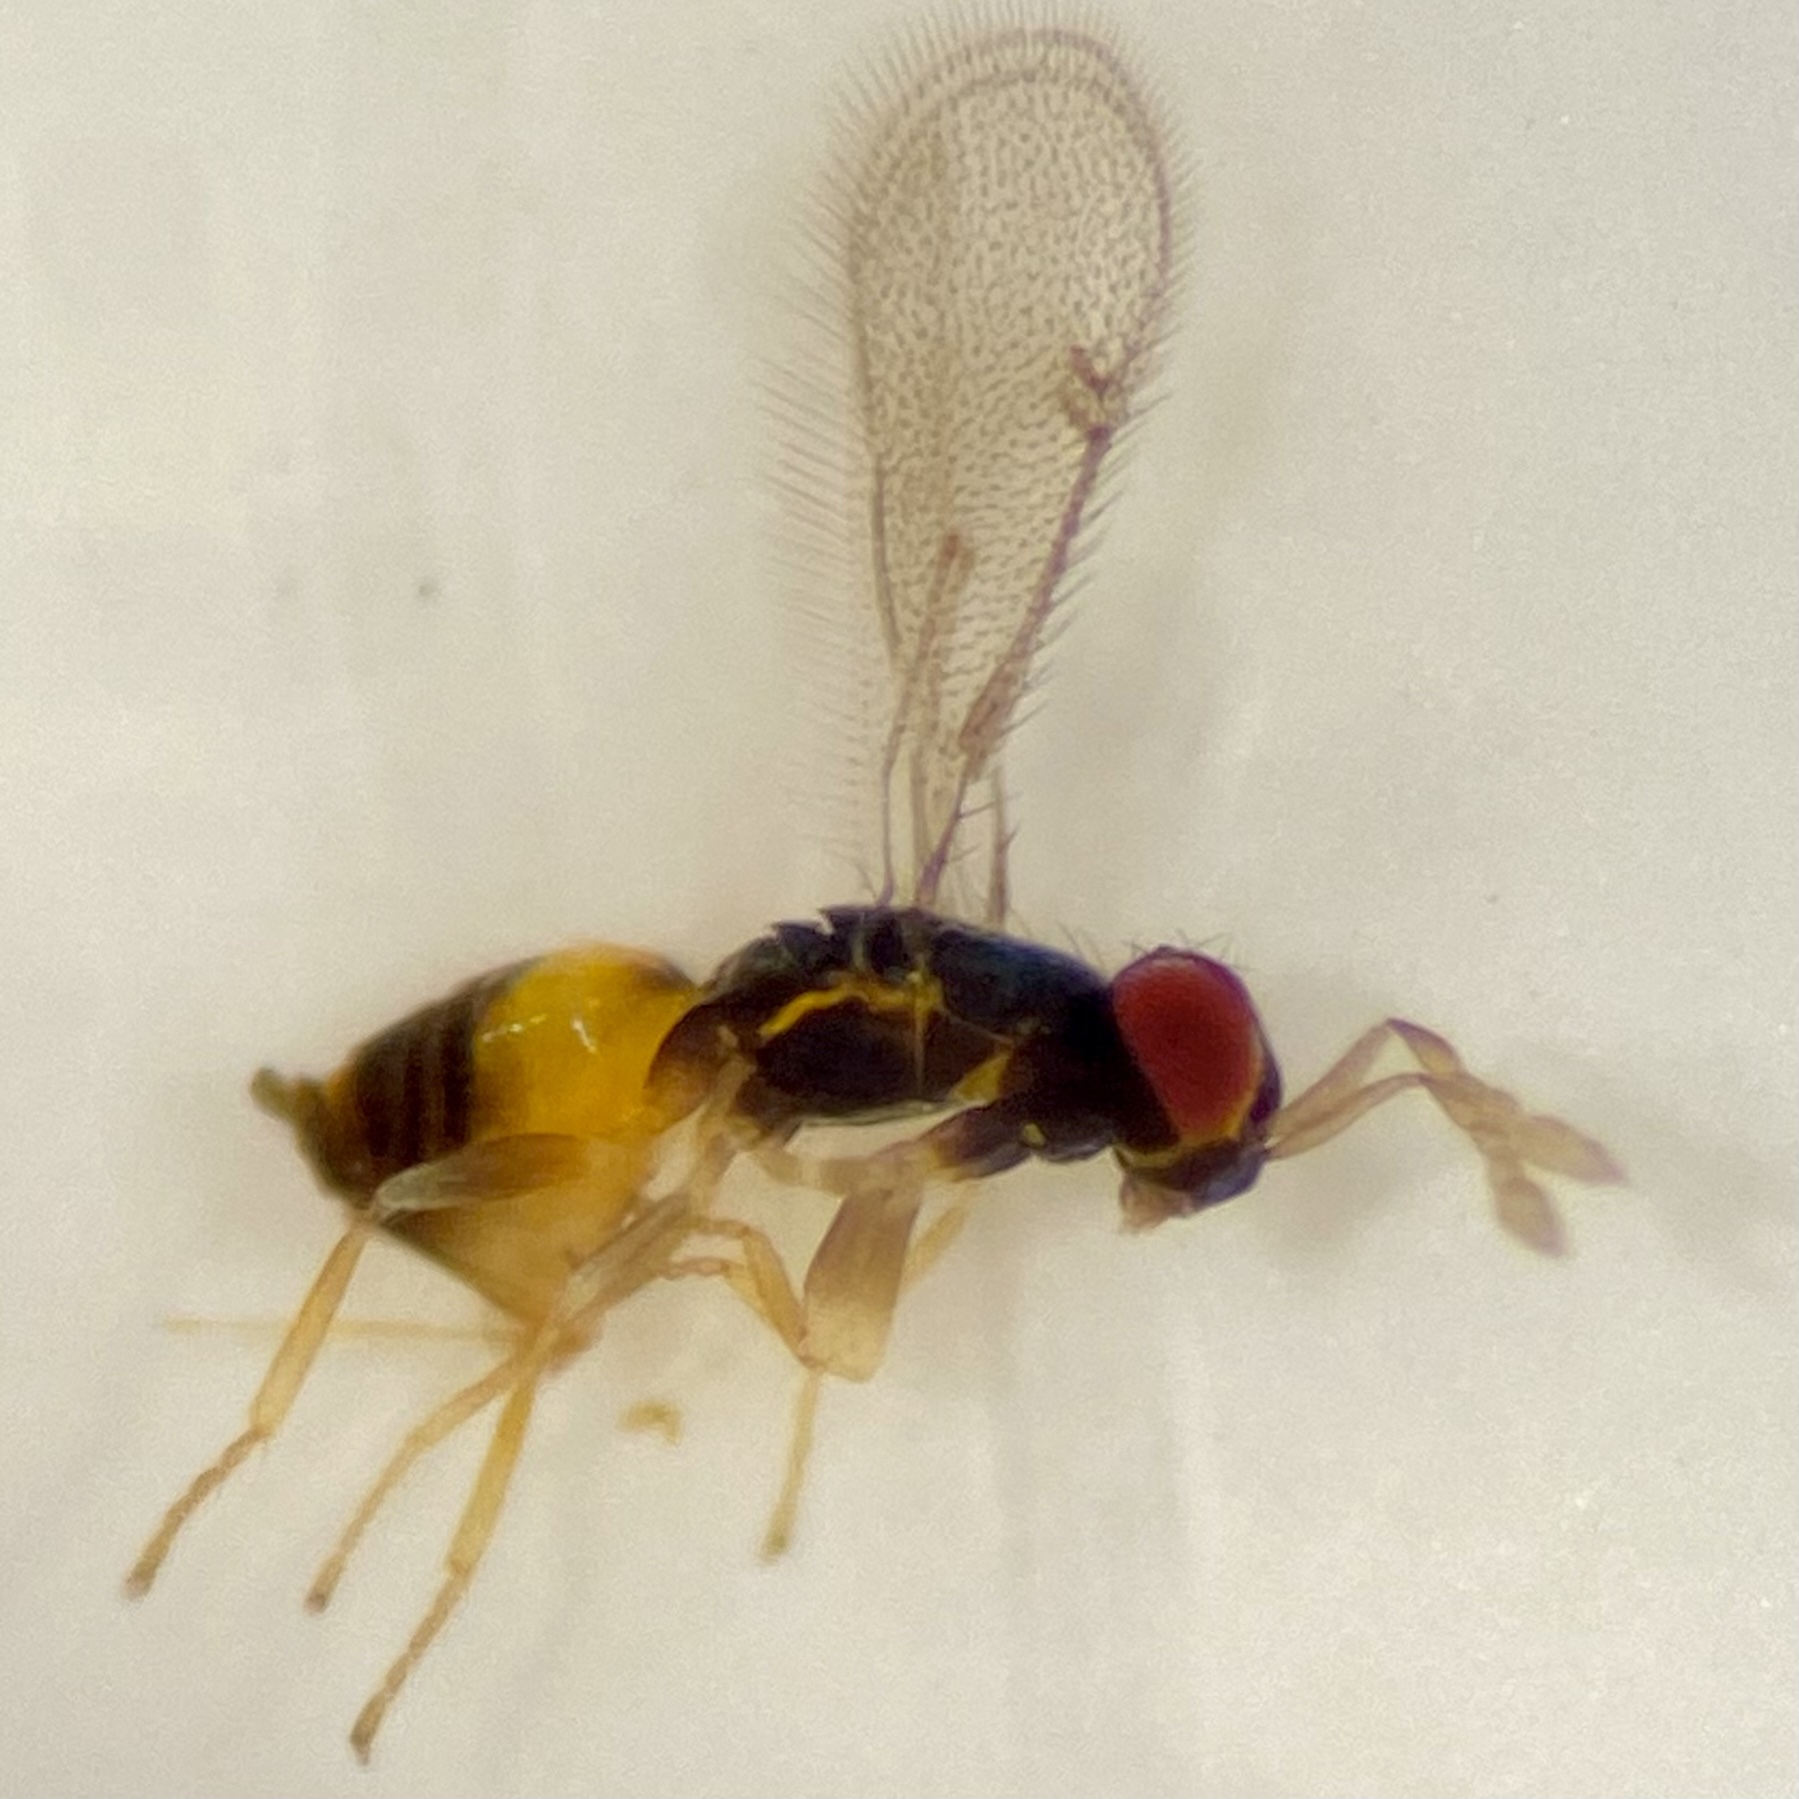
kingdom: Animalia
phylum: Arthropoda
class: Insecta
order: Hymenoptera
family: Eulophidae
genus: Ceranisus
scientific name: Ceranisus americensis
